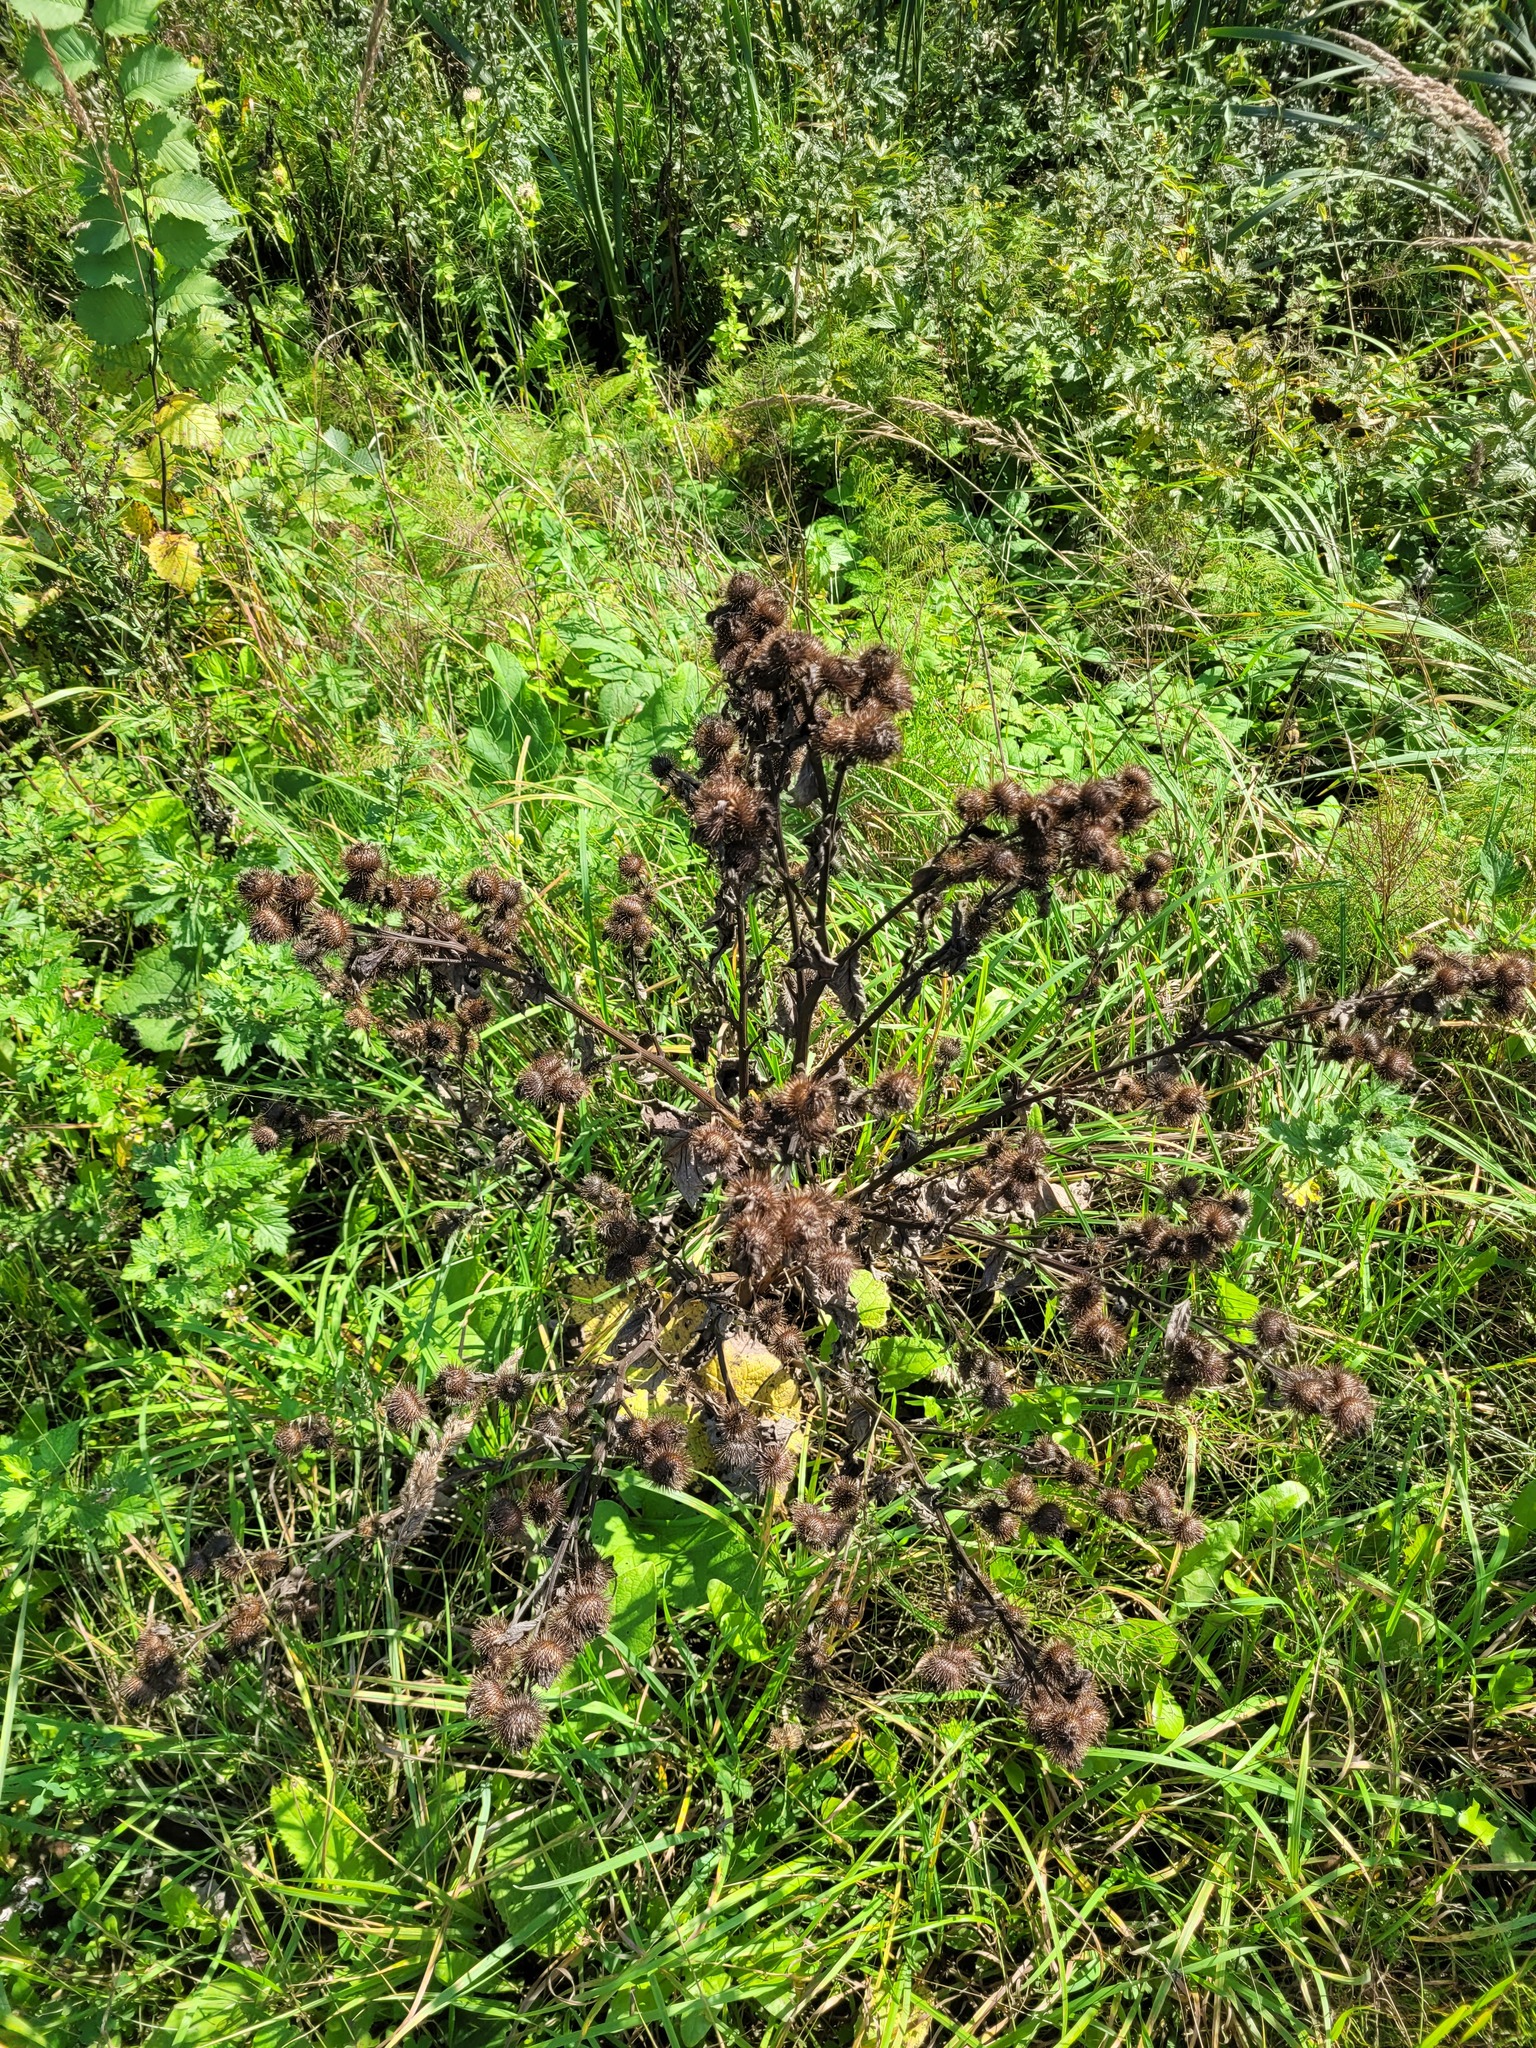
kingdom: Plantae
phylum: Tracheophyta
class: Magnoliopsida
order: Asterales
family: Asteraceae
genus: Arctium
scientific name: Arctium minus
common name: Lesser burdock
